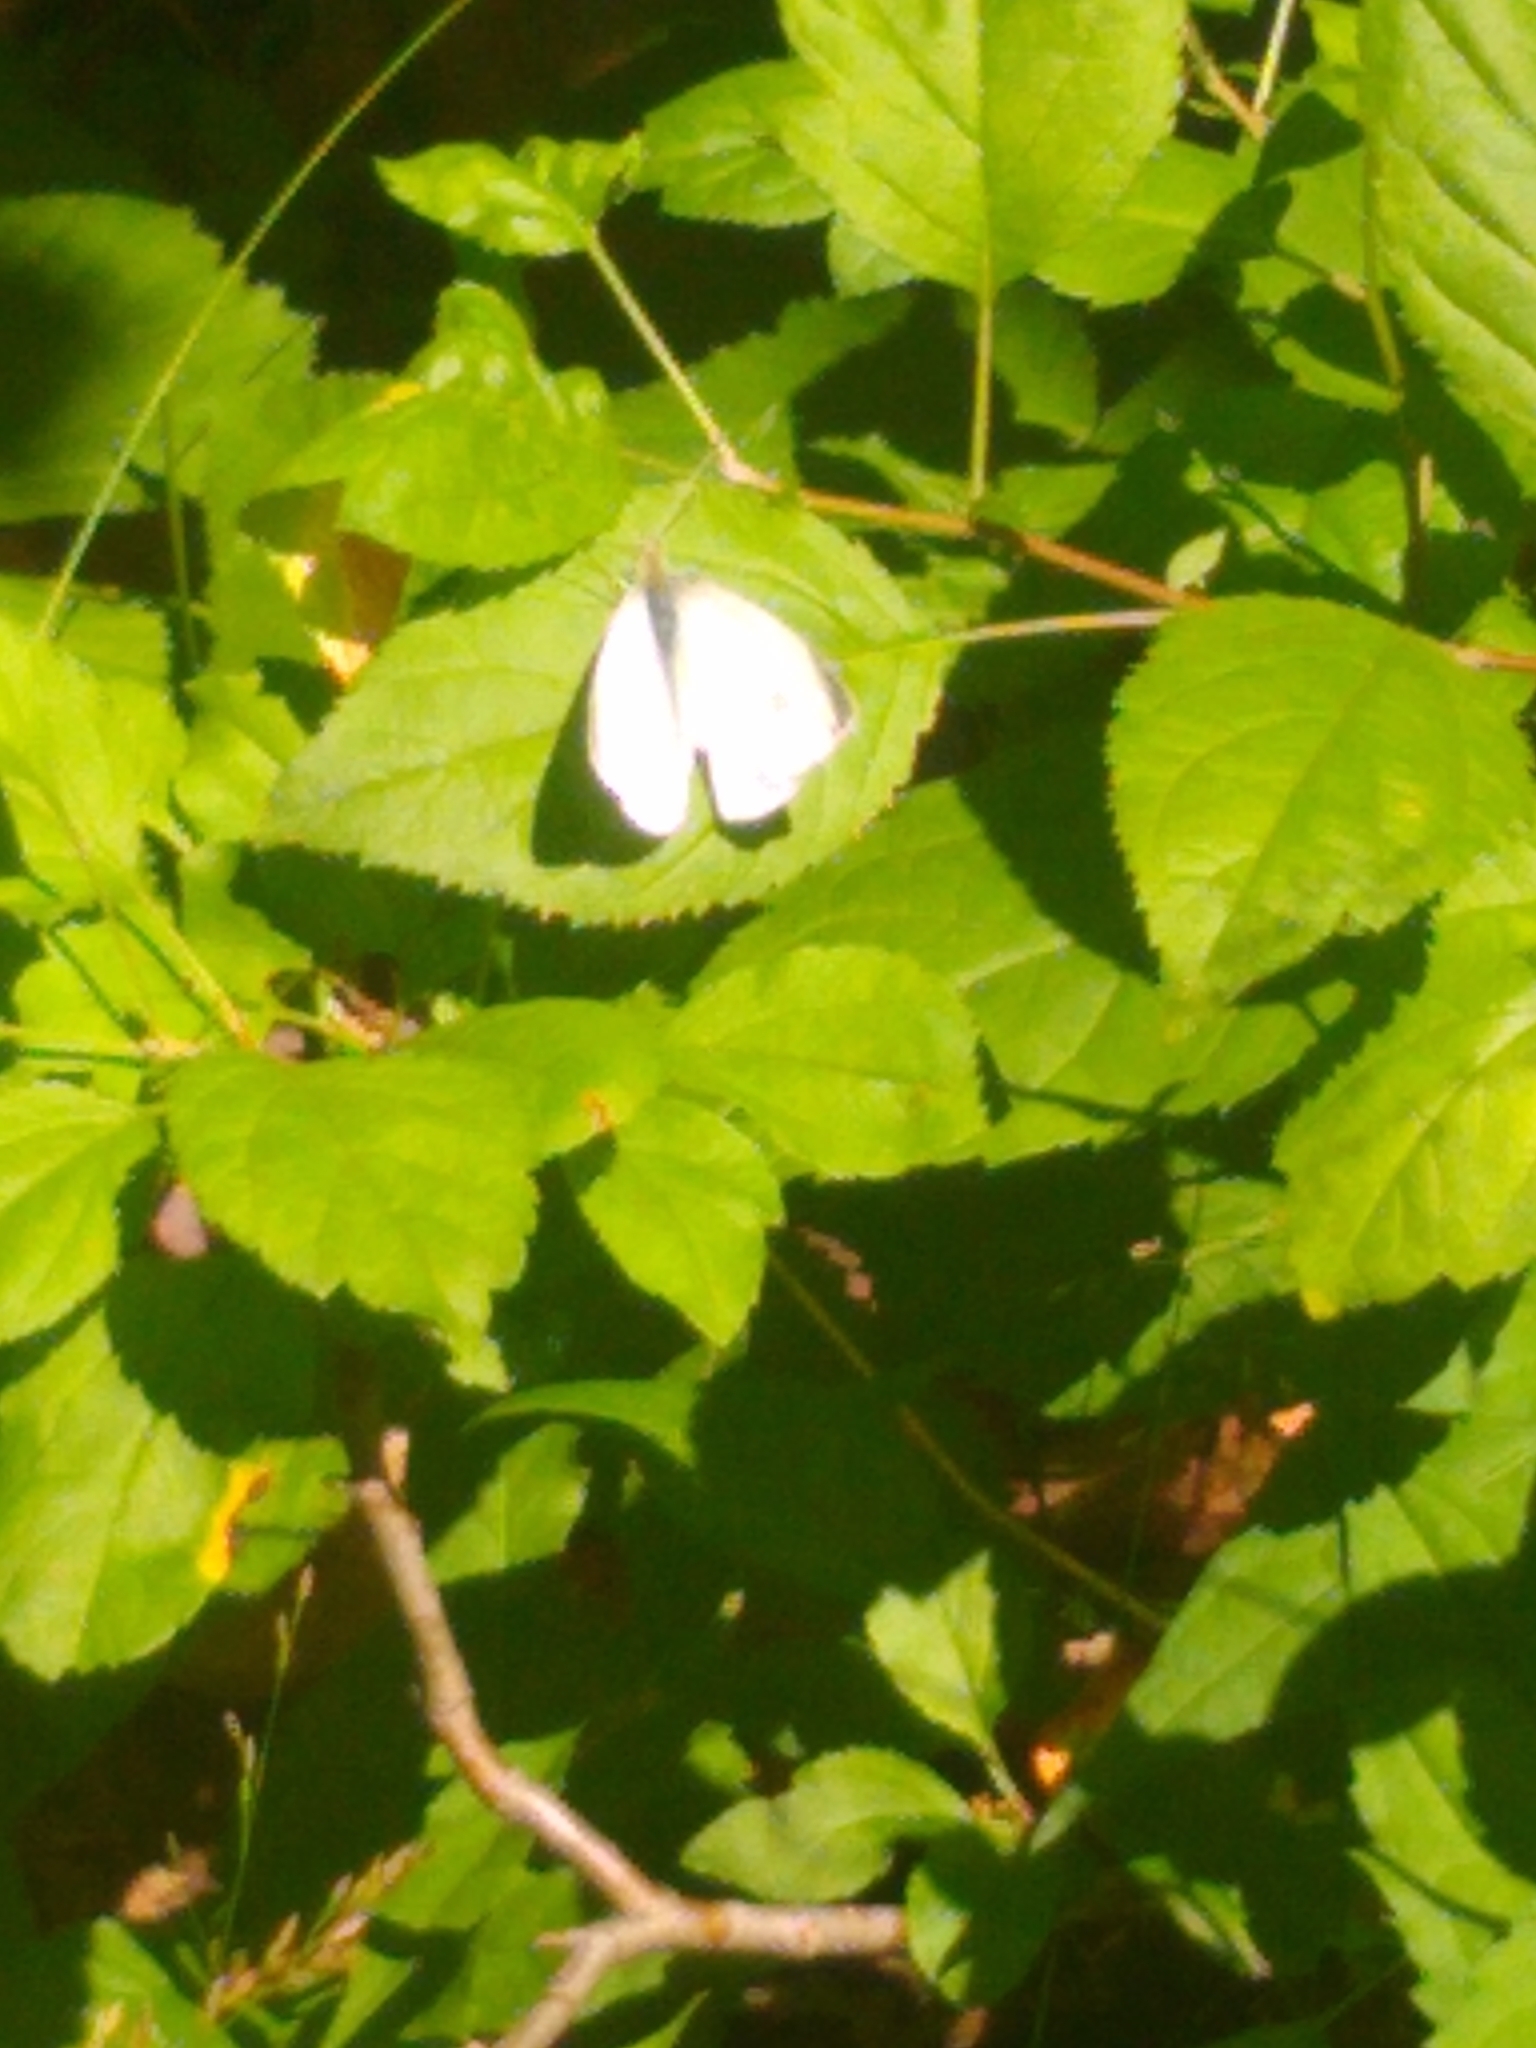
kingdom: Animalia
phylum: Arthropoda
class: Insecta
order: Lepidoptera
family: Pieridae
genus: Pieris
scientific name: Pieris rapae
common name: Small white
